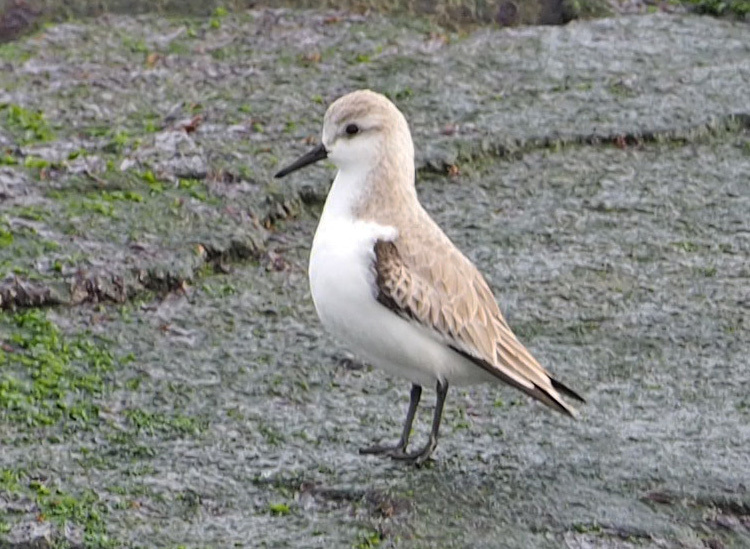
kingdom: Animalia
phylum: Chordata
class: Aves
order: Charadriiformes
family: Scolopacidae
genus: Calidris
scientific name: Calidris alba
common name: Sanderling
